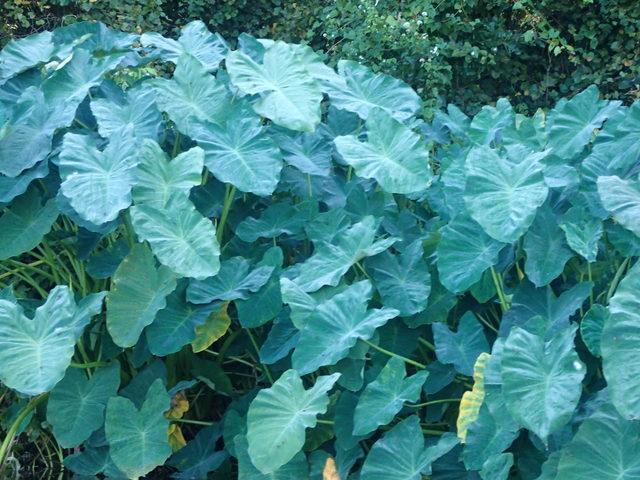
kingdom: Plantae
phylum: Tracheophyta
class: Liliopsida
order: Alismatales
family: Araceae
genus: Colocasia
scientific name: Colocasia esculenta
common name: Taro
